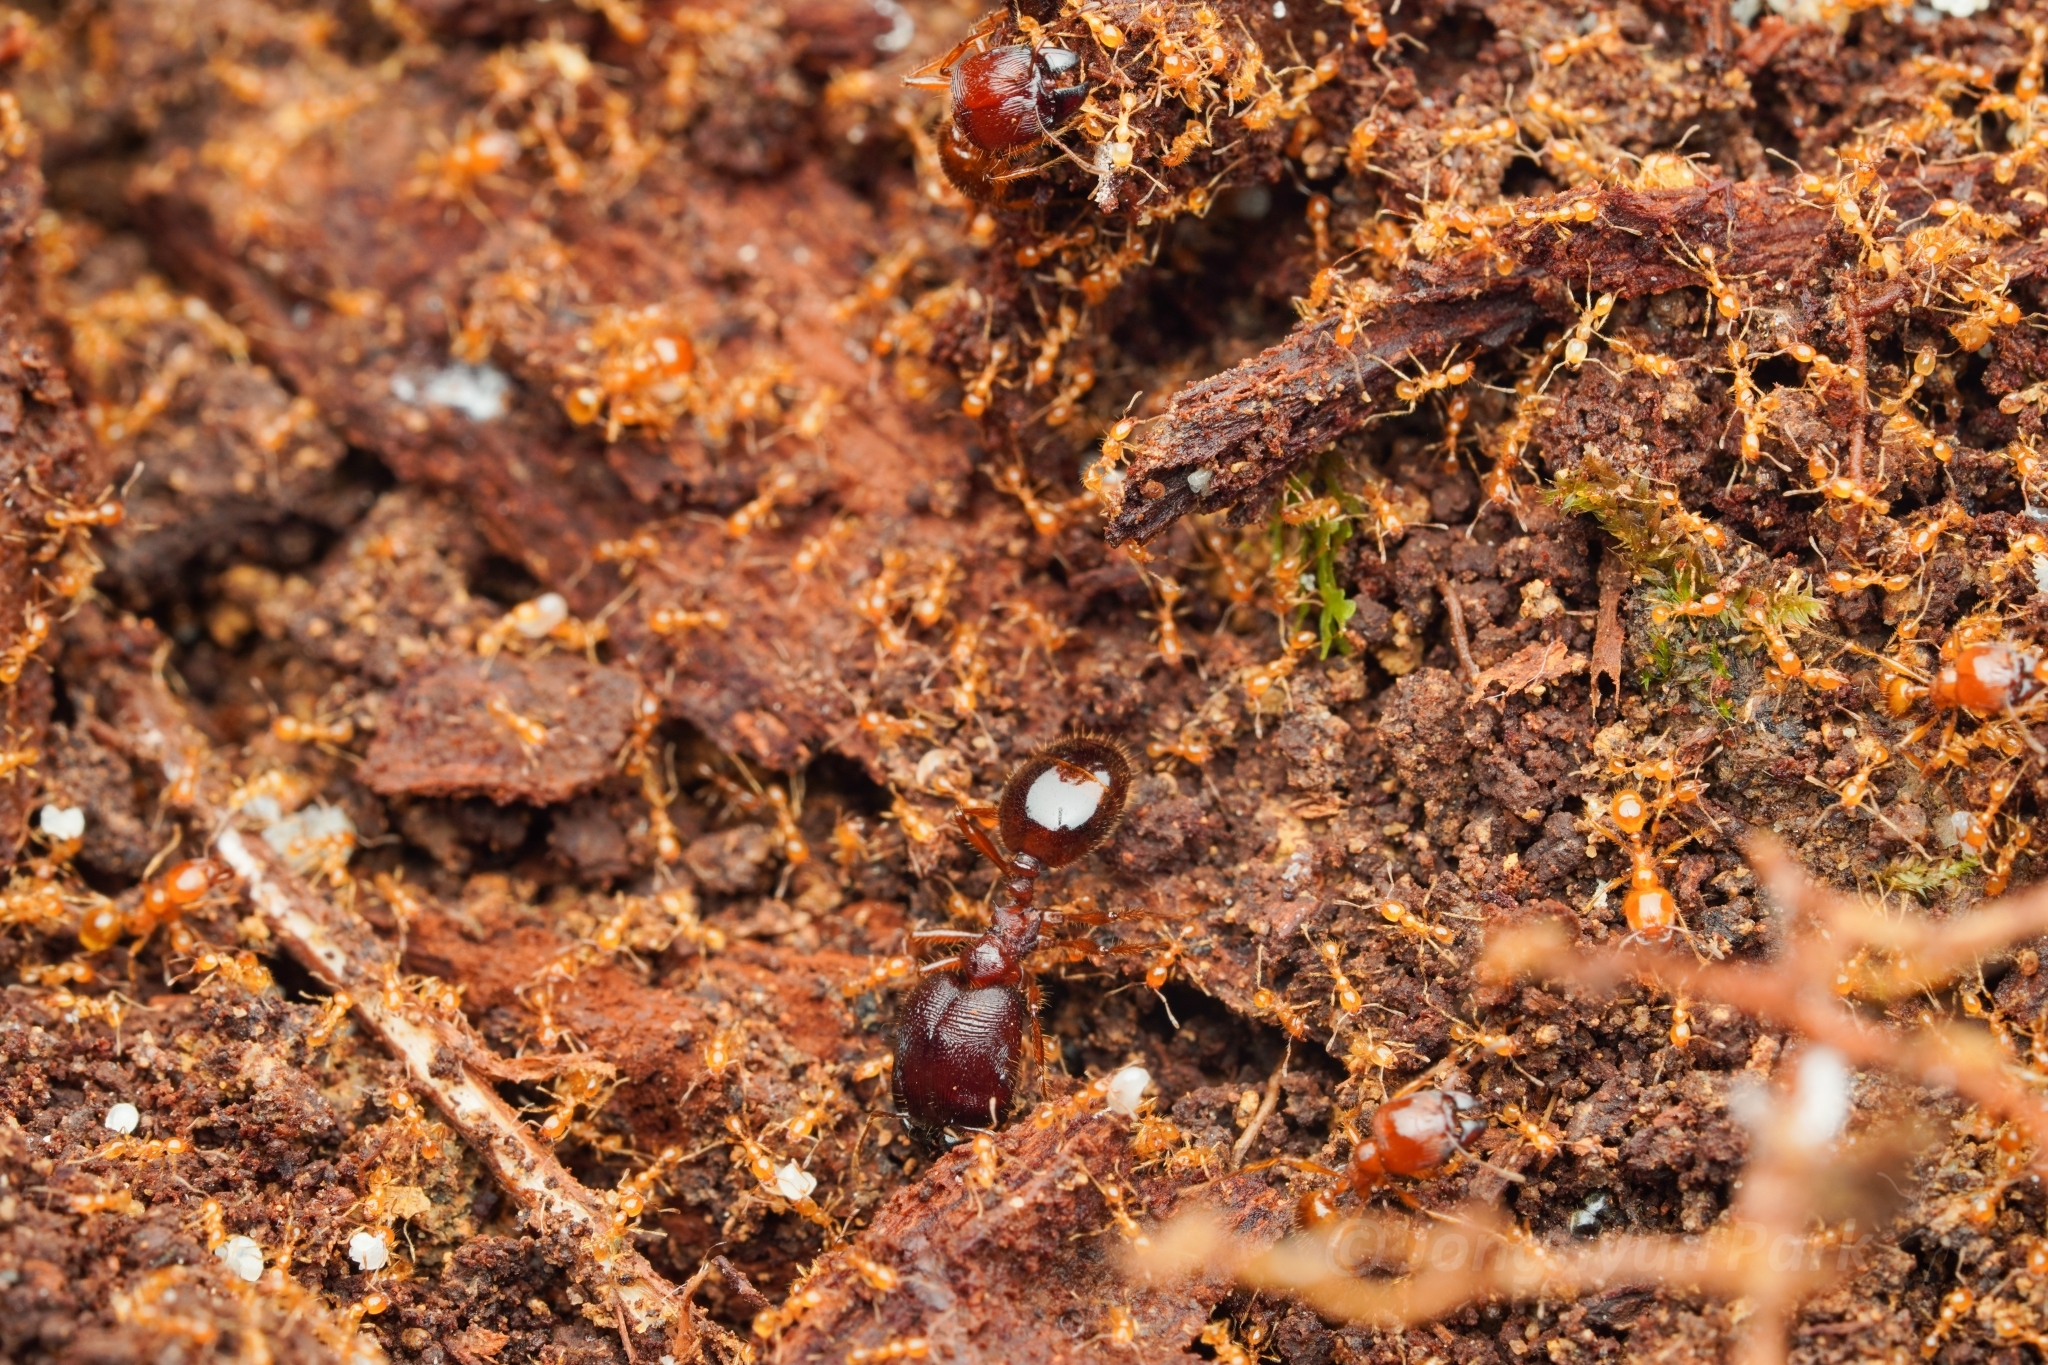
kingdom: Animalia
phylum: Arthropoda
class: Insecta
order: Hymenoptera
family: Formicidae
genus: Carebara
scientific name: Carebara affinis
